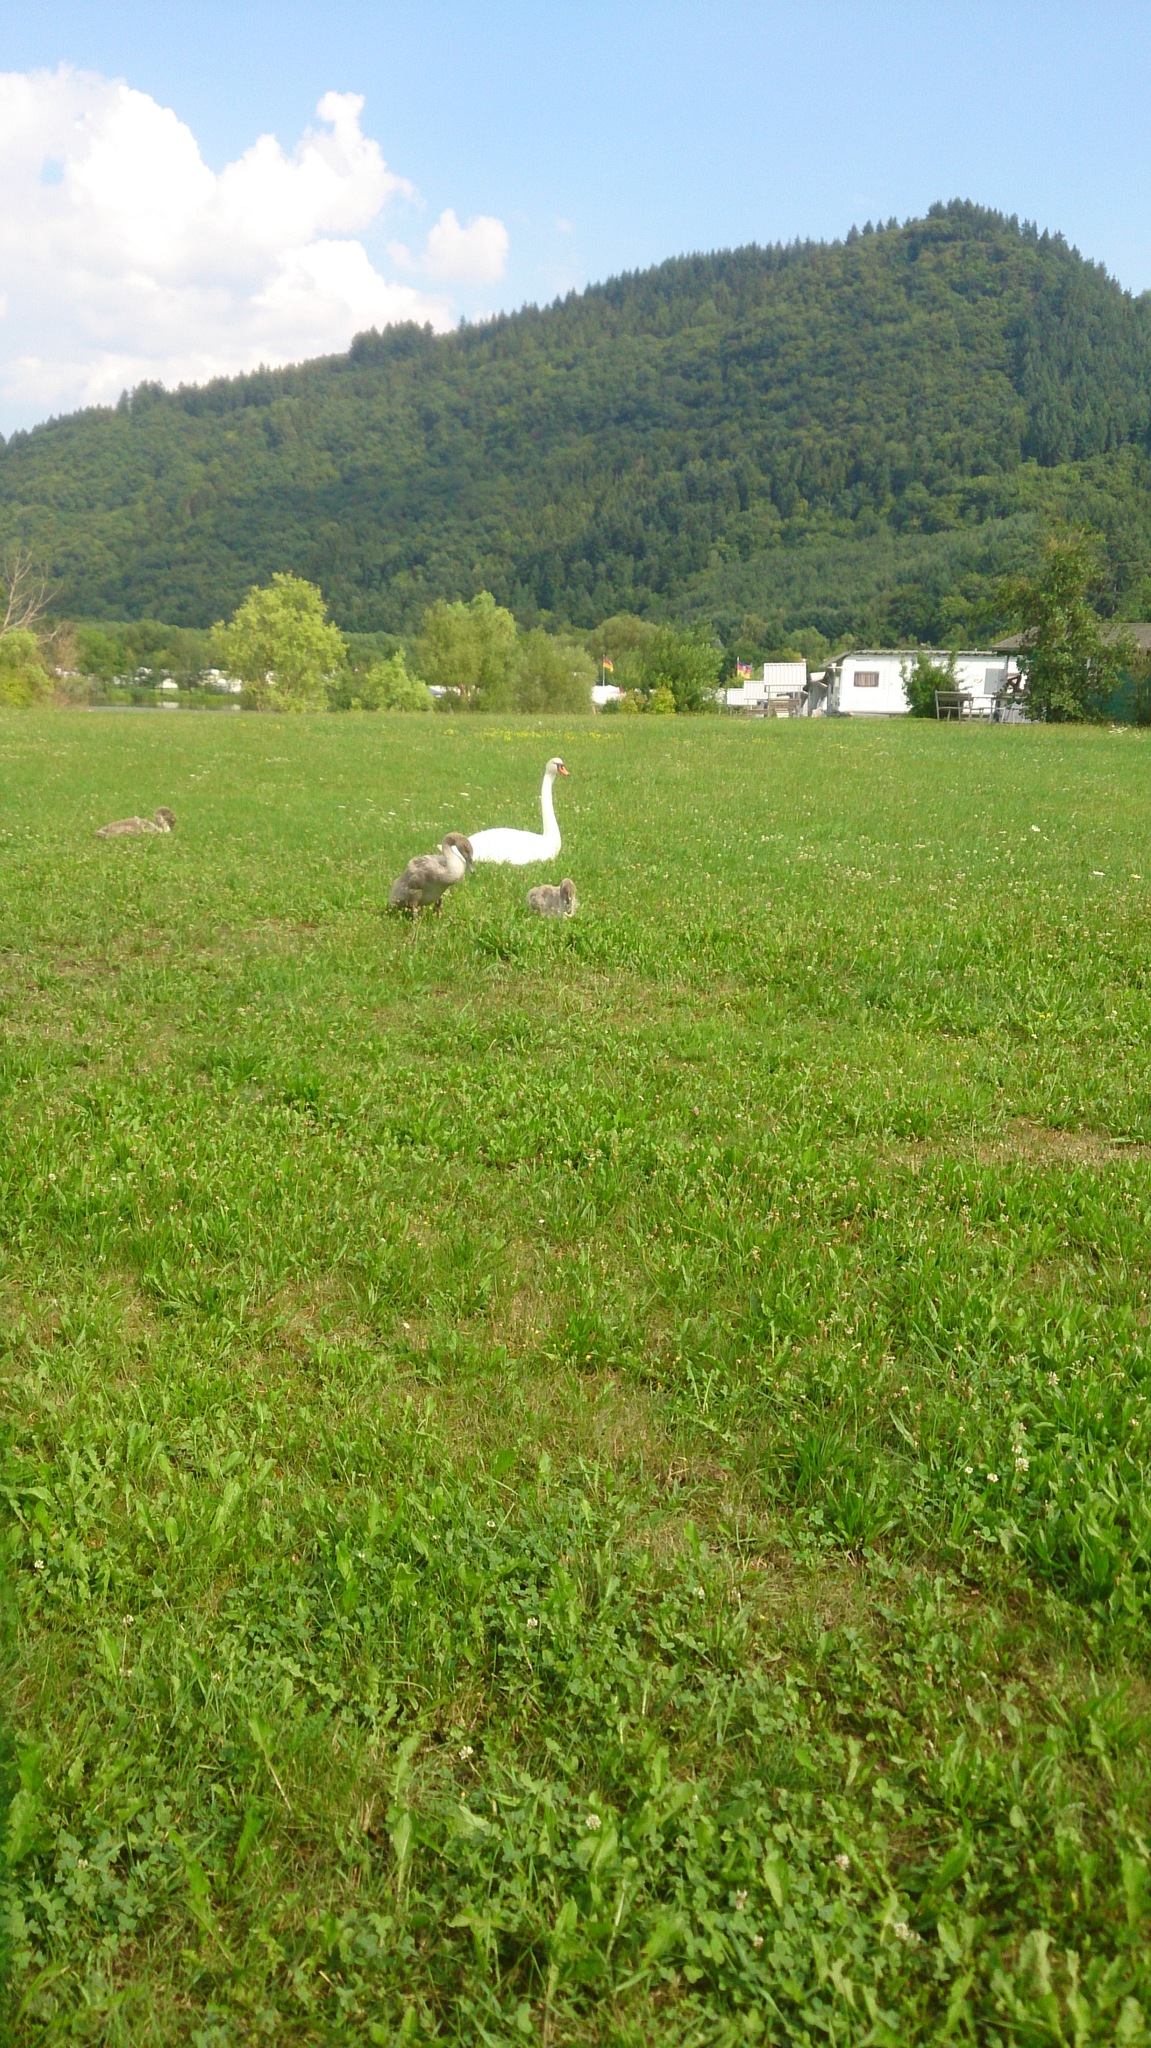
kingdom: Animalia
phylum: Chordata
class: Aves
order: Anseriformes
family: Anatidae
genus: Cygnus
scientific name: Cygnus olor
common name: Mute swan
